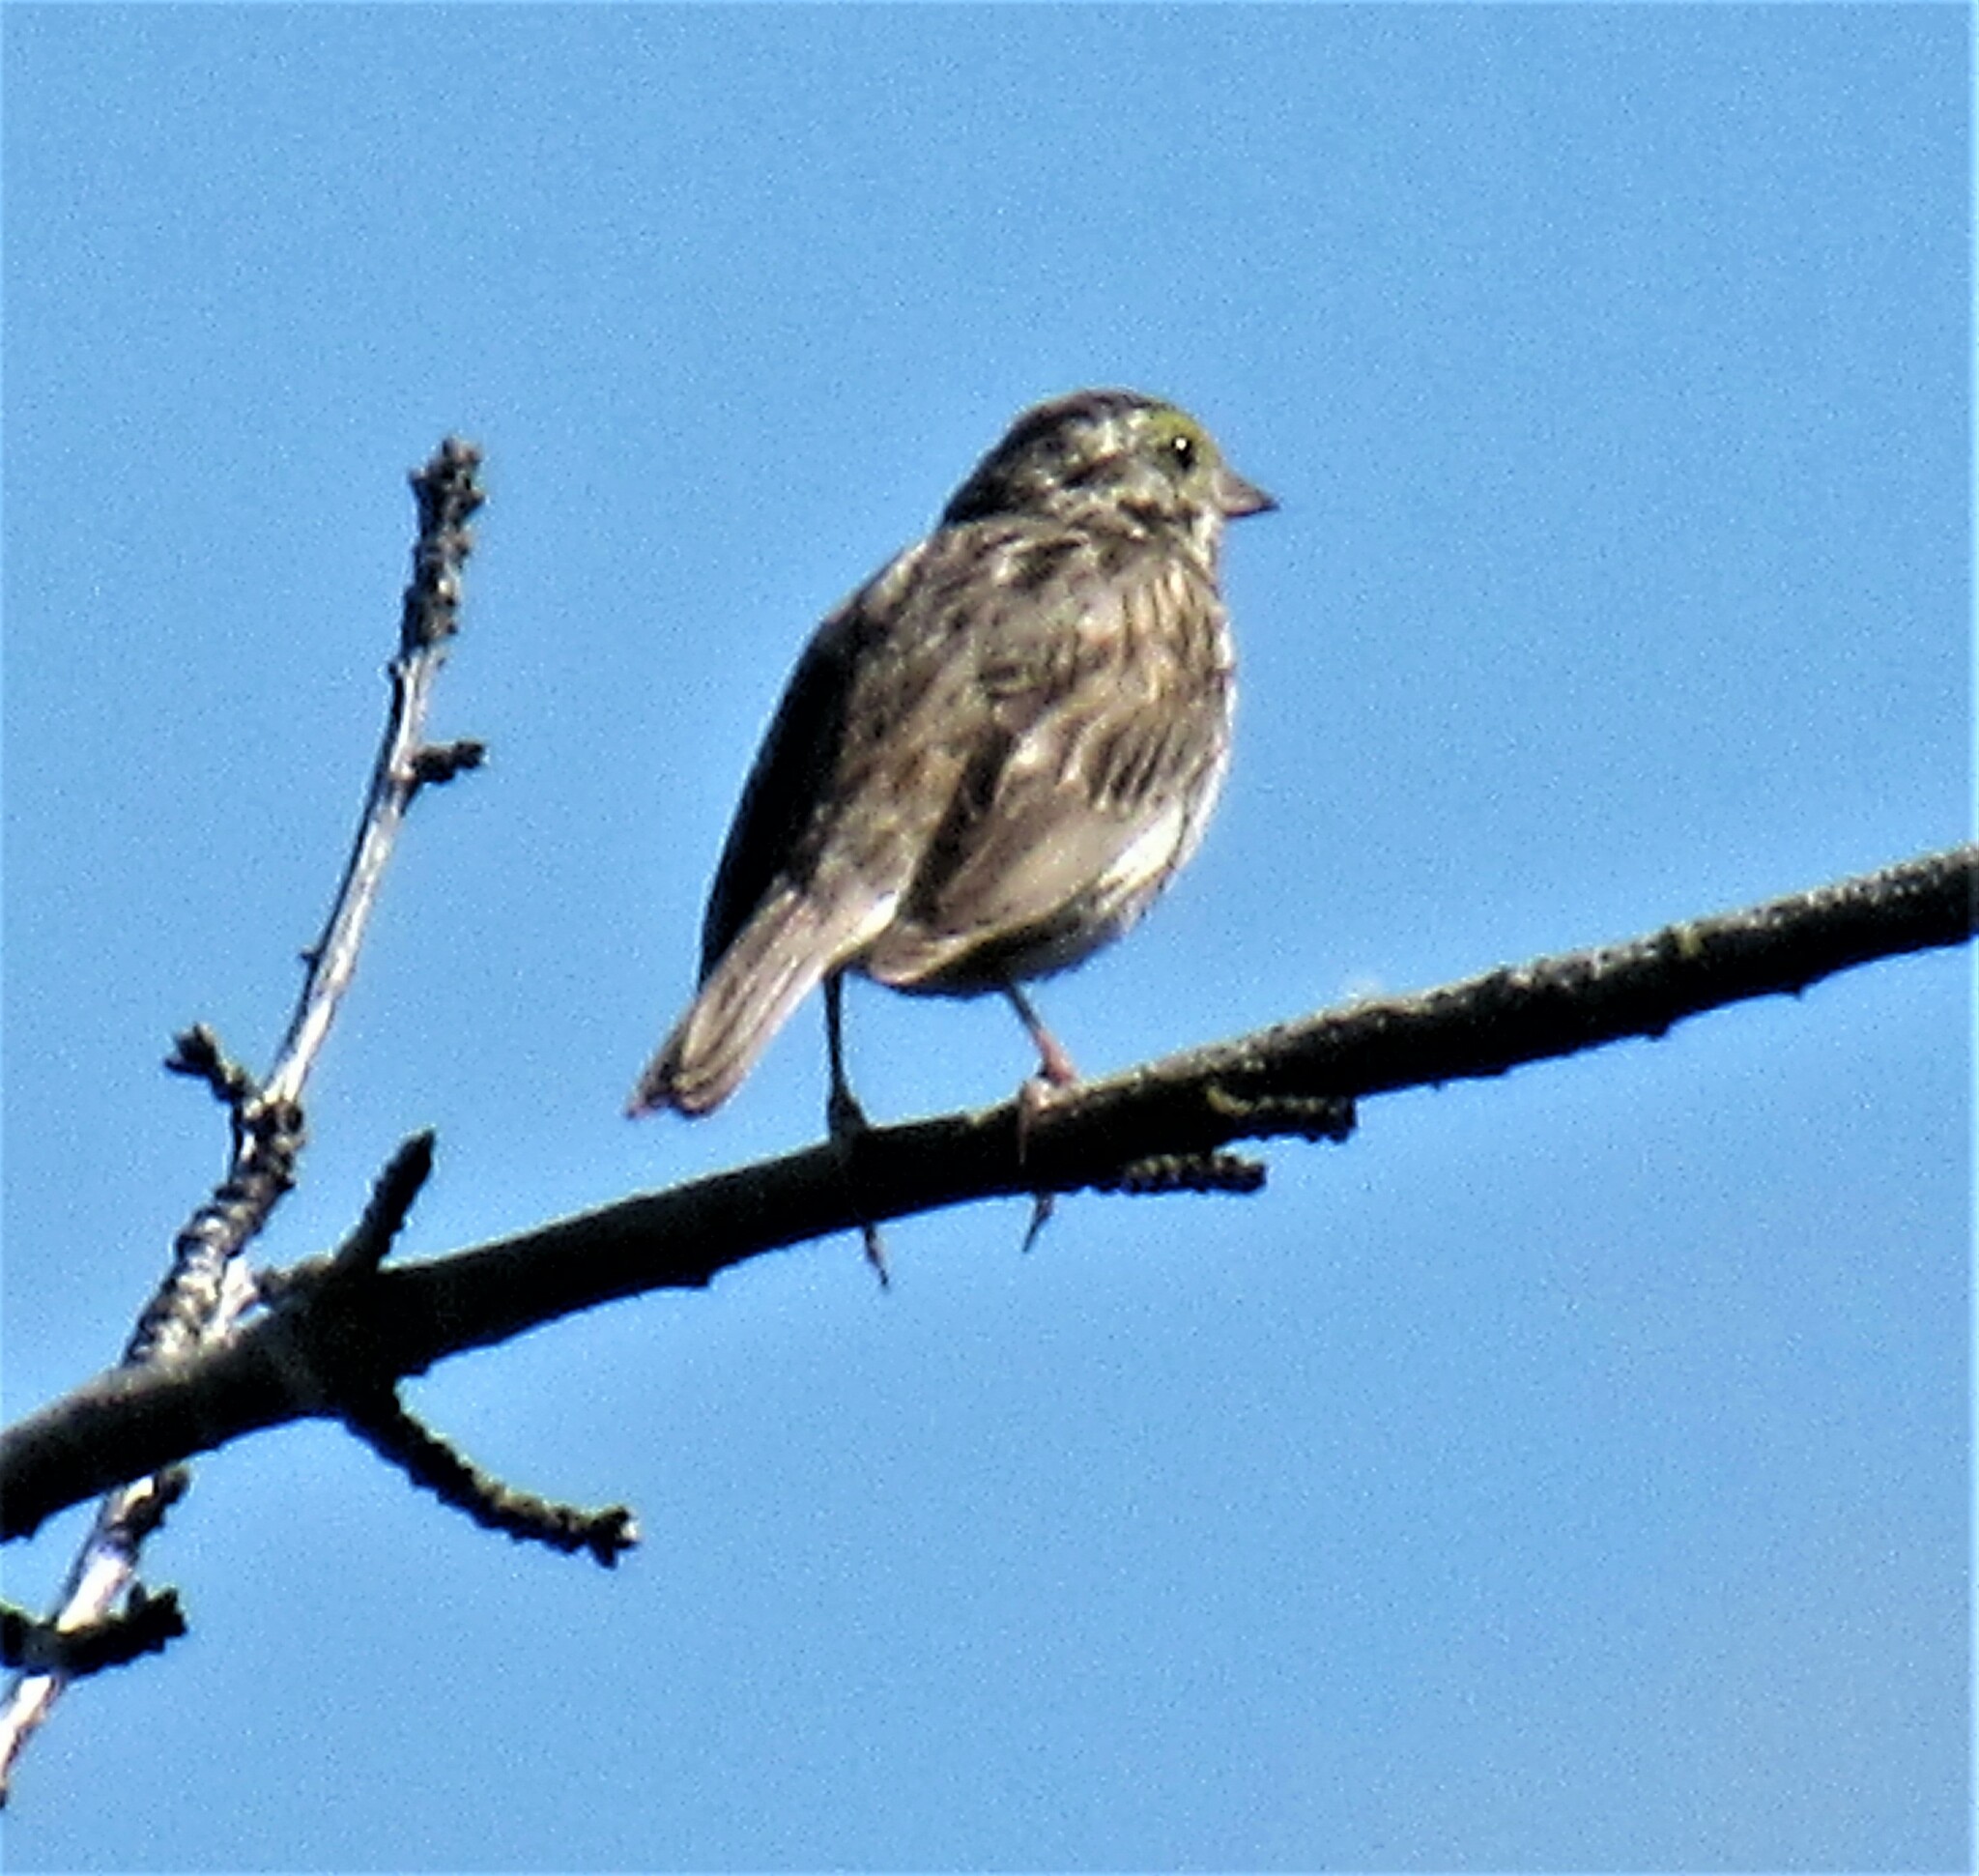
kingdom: Animalia
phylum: Chordata
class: Aves
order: Passeriformes
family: Passerellidae
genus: Passerculus
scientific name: Passerculus sandwichensis
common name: Savannah sparrow
